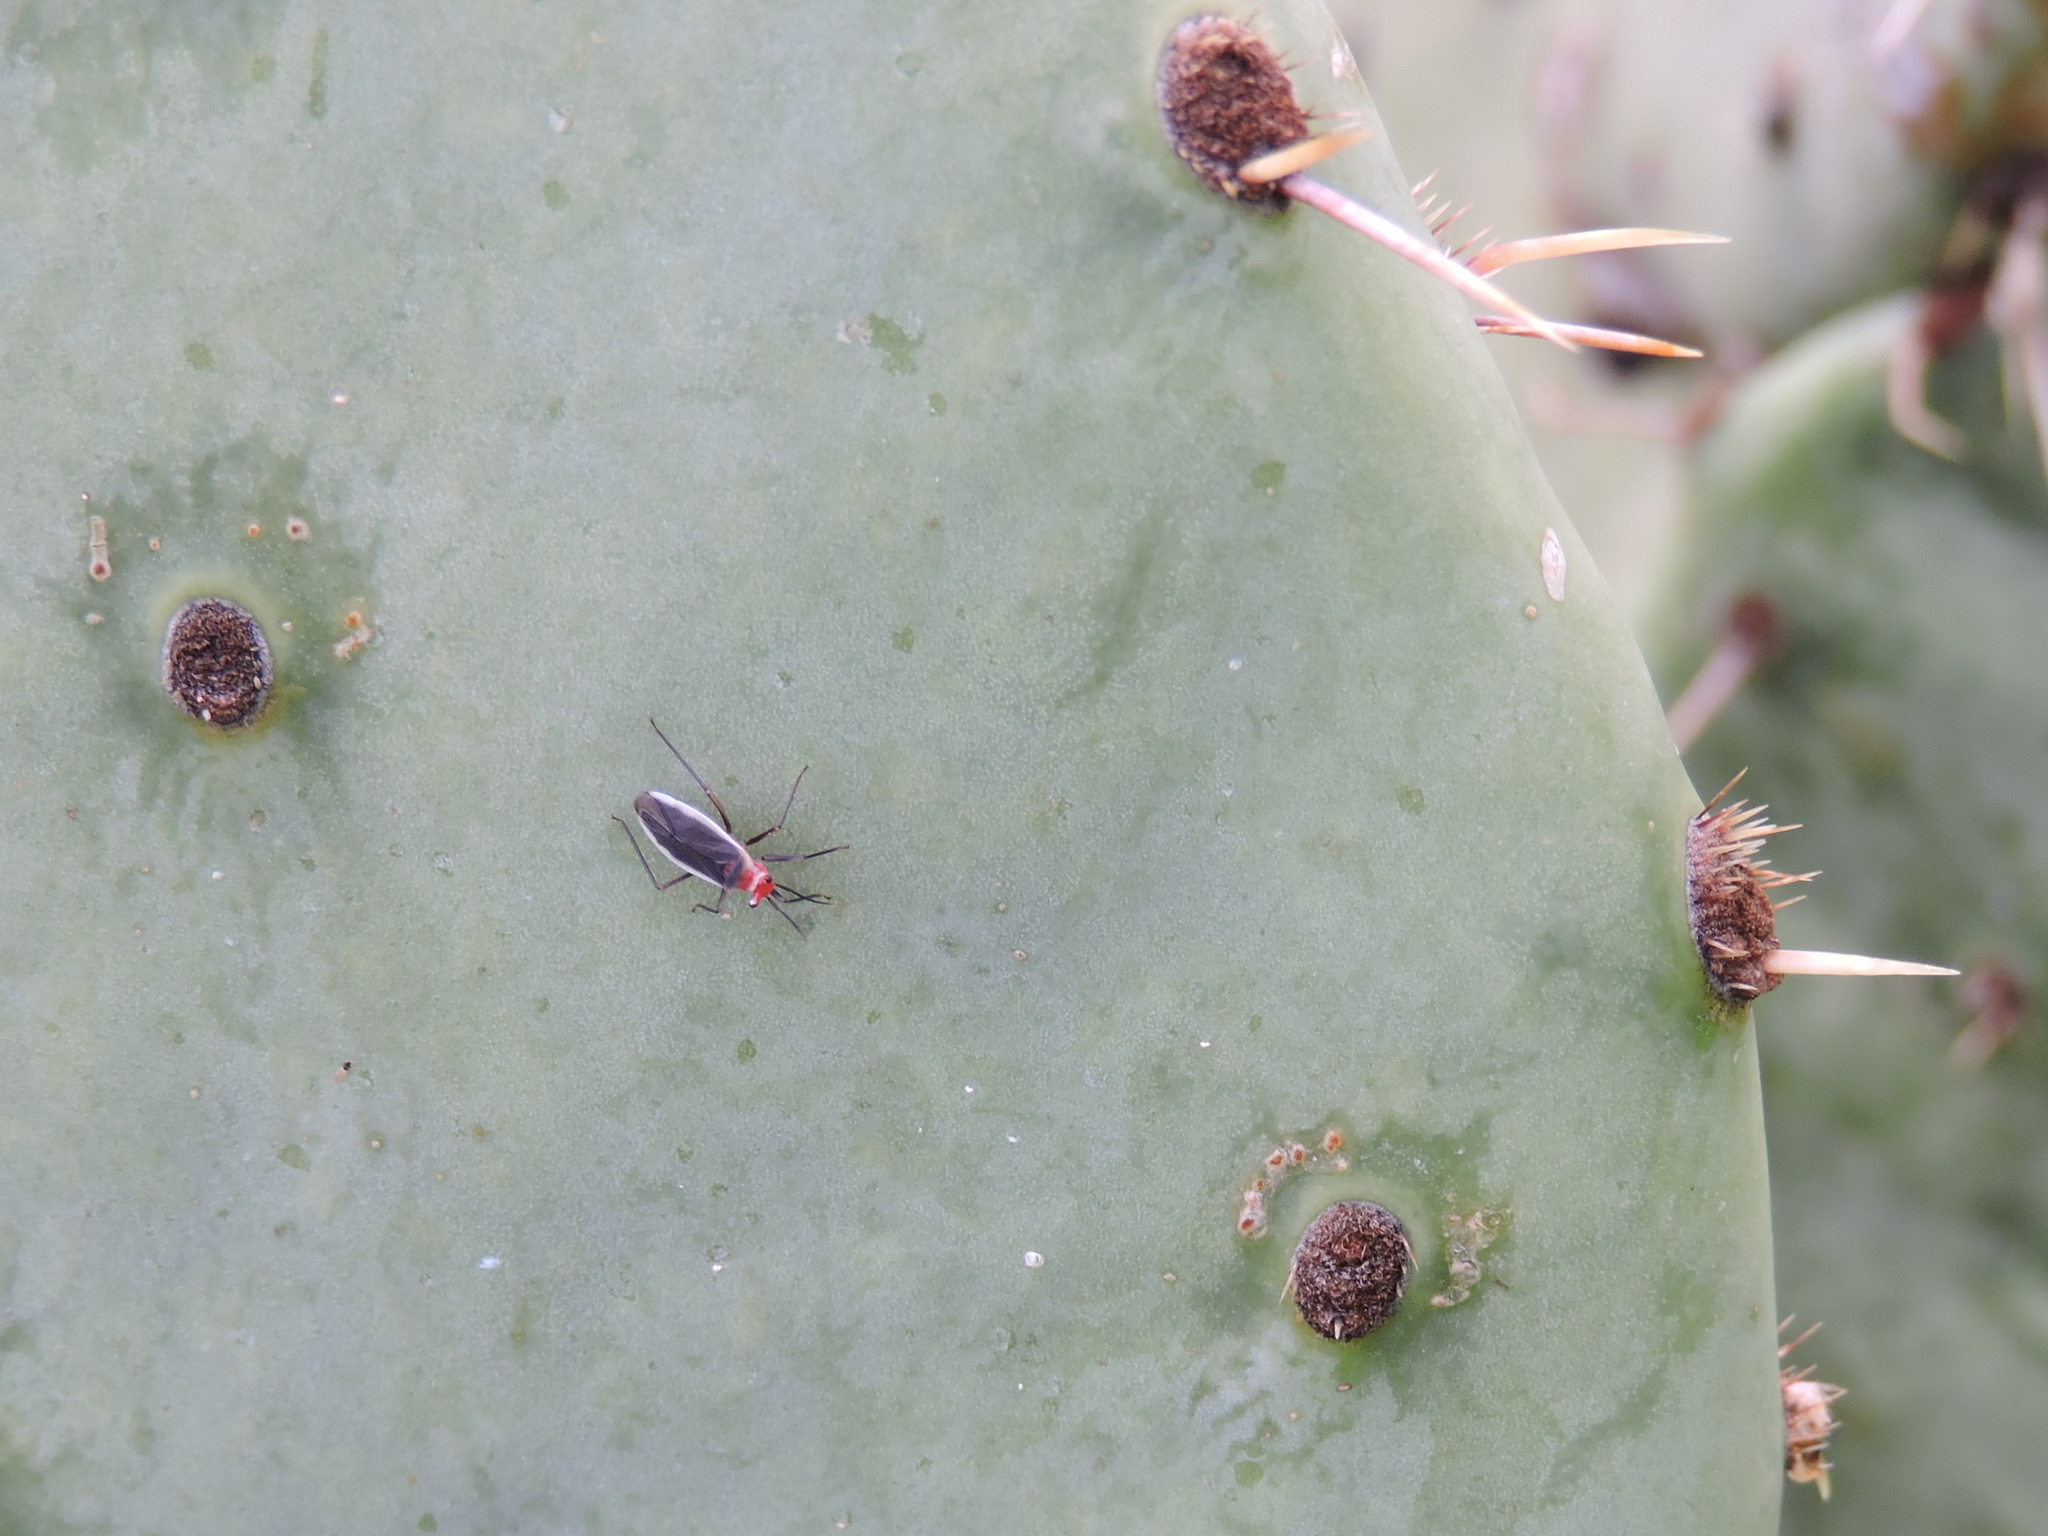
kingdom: Animalia
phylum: Arthropoda
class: Insecta
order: Hemiptera
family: Miridae
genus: Hesperolabops
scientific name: Hesperolabops gelastops
